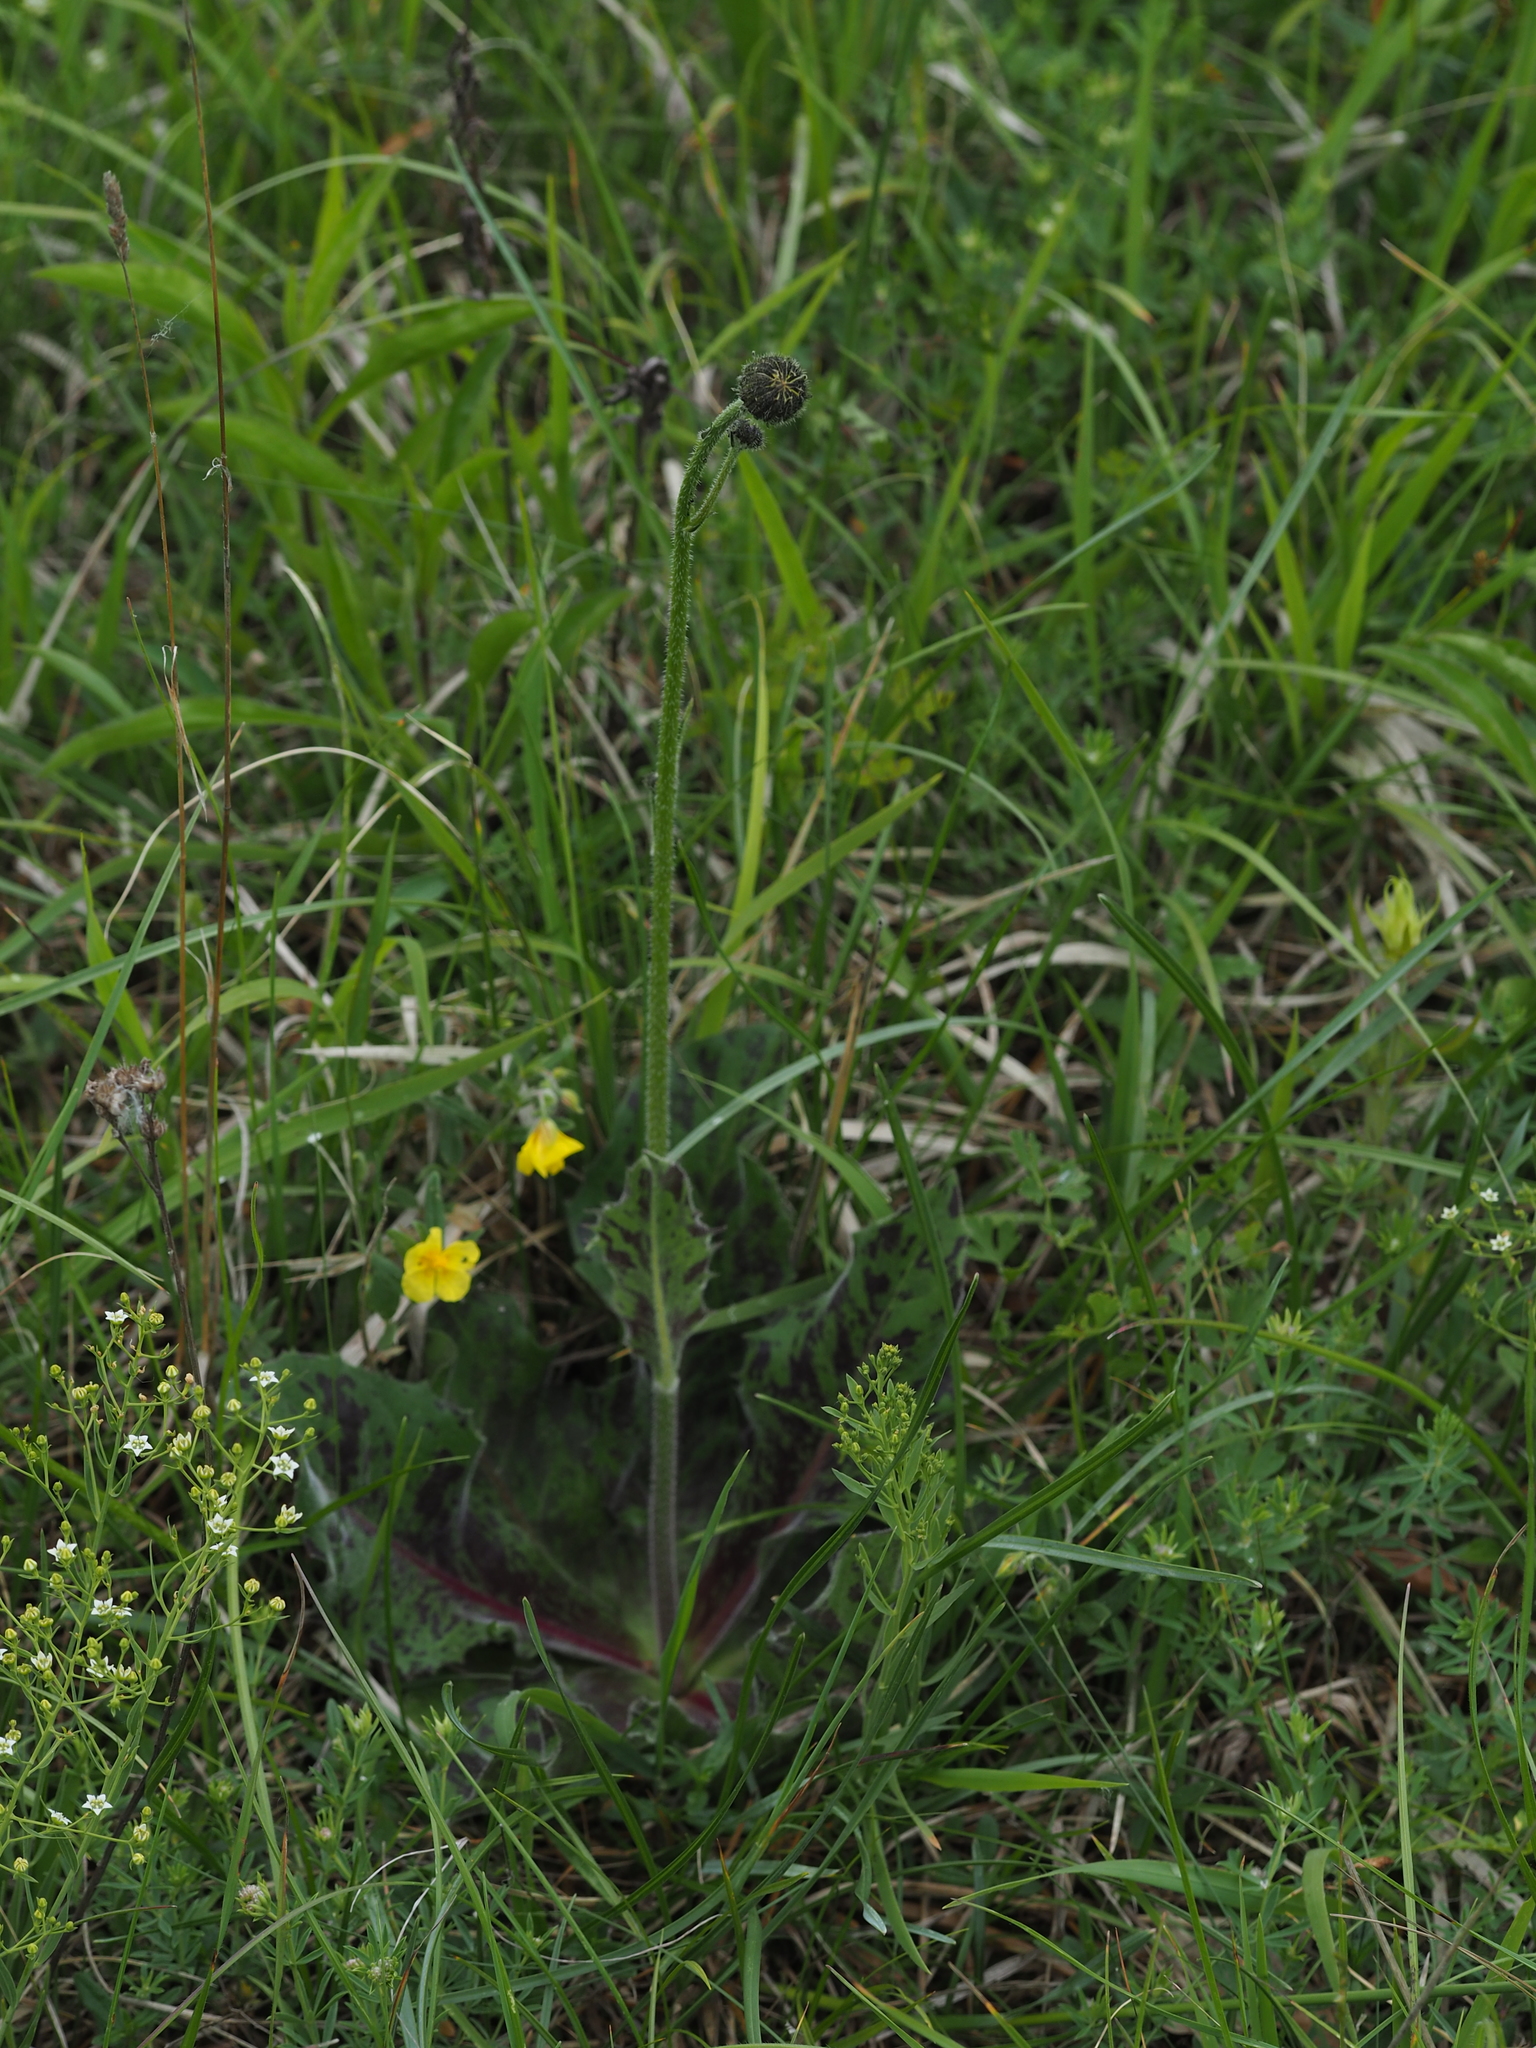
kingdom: Plantae
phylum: Tracheophyta
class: Magnoliopsida
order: Asterales
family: Asteraceae
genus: Trommsdorffia
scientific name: Trommsdorffia maculata
